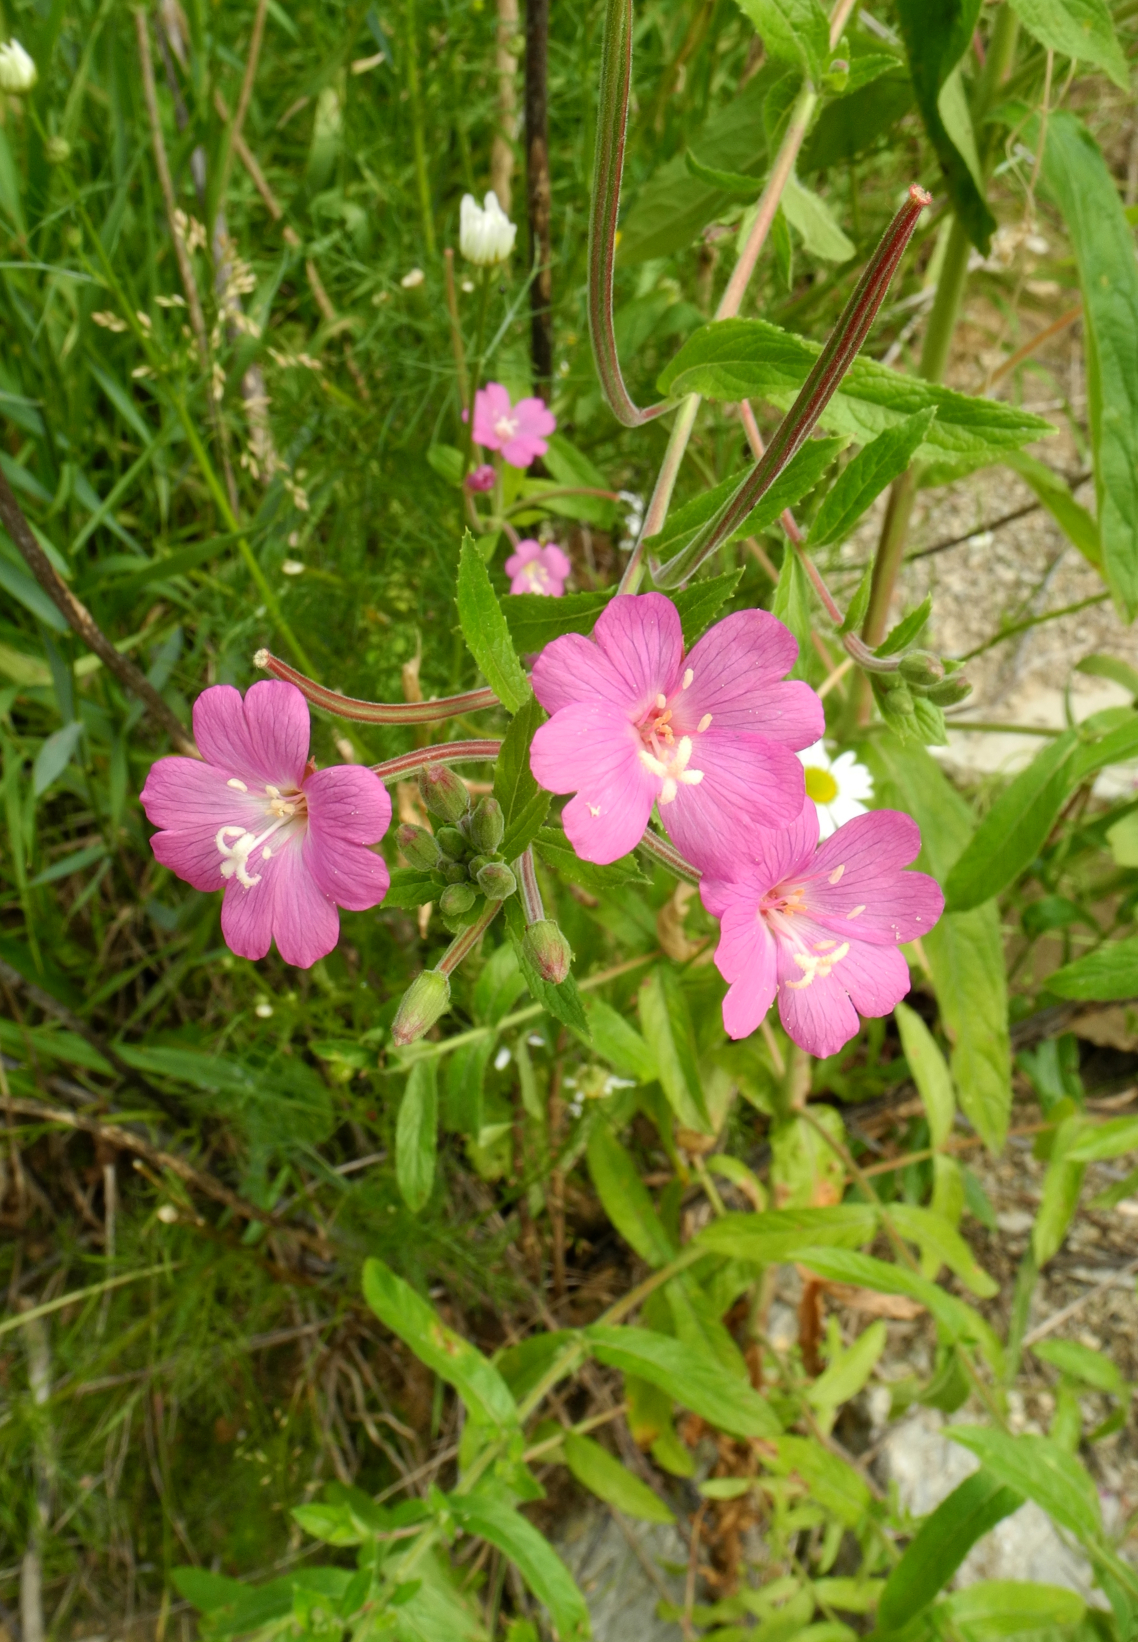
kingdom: Plantae
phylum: Tracheophyta
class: Magnoliopsida
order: Myrtales
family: Onagraceae
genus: Epilobium
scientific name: Epilobium hirsutum
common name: Great willowherb
